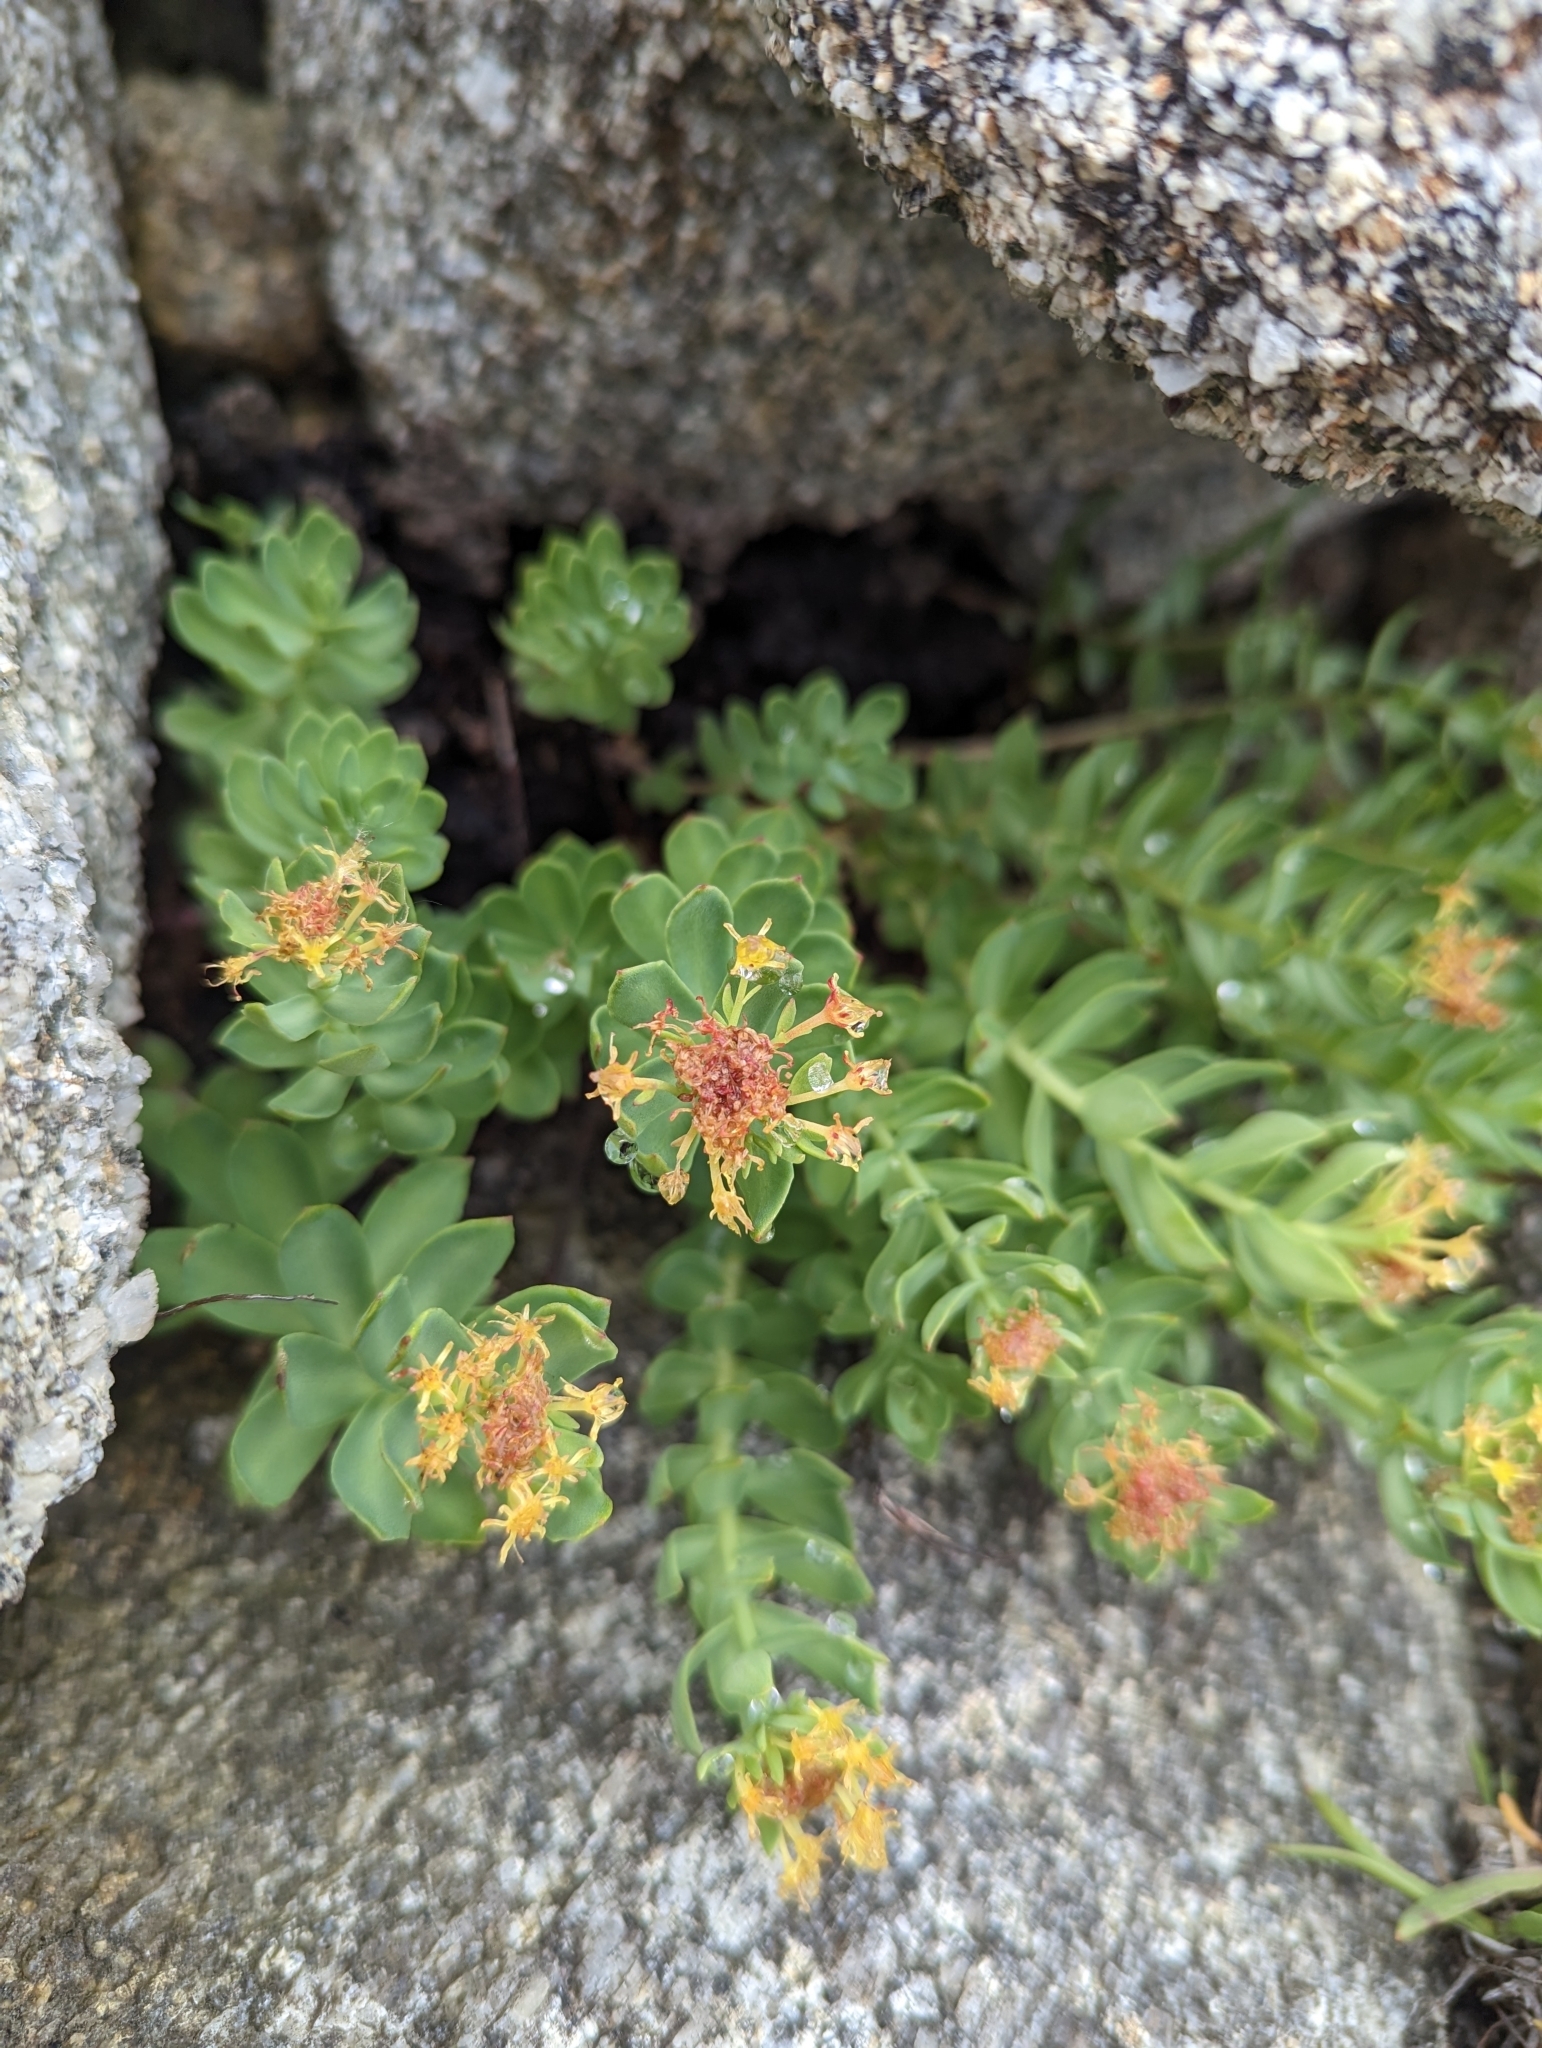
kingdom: Plantae
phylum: Tracheophyta
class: Magnoliopsida
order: Saxifragales
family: Crassulaceae
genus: Rhodiola
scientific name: Rhodiola rosea
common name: Roseroot
